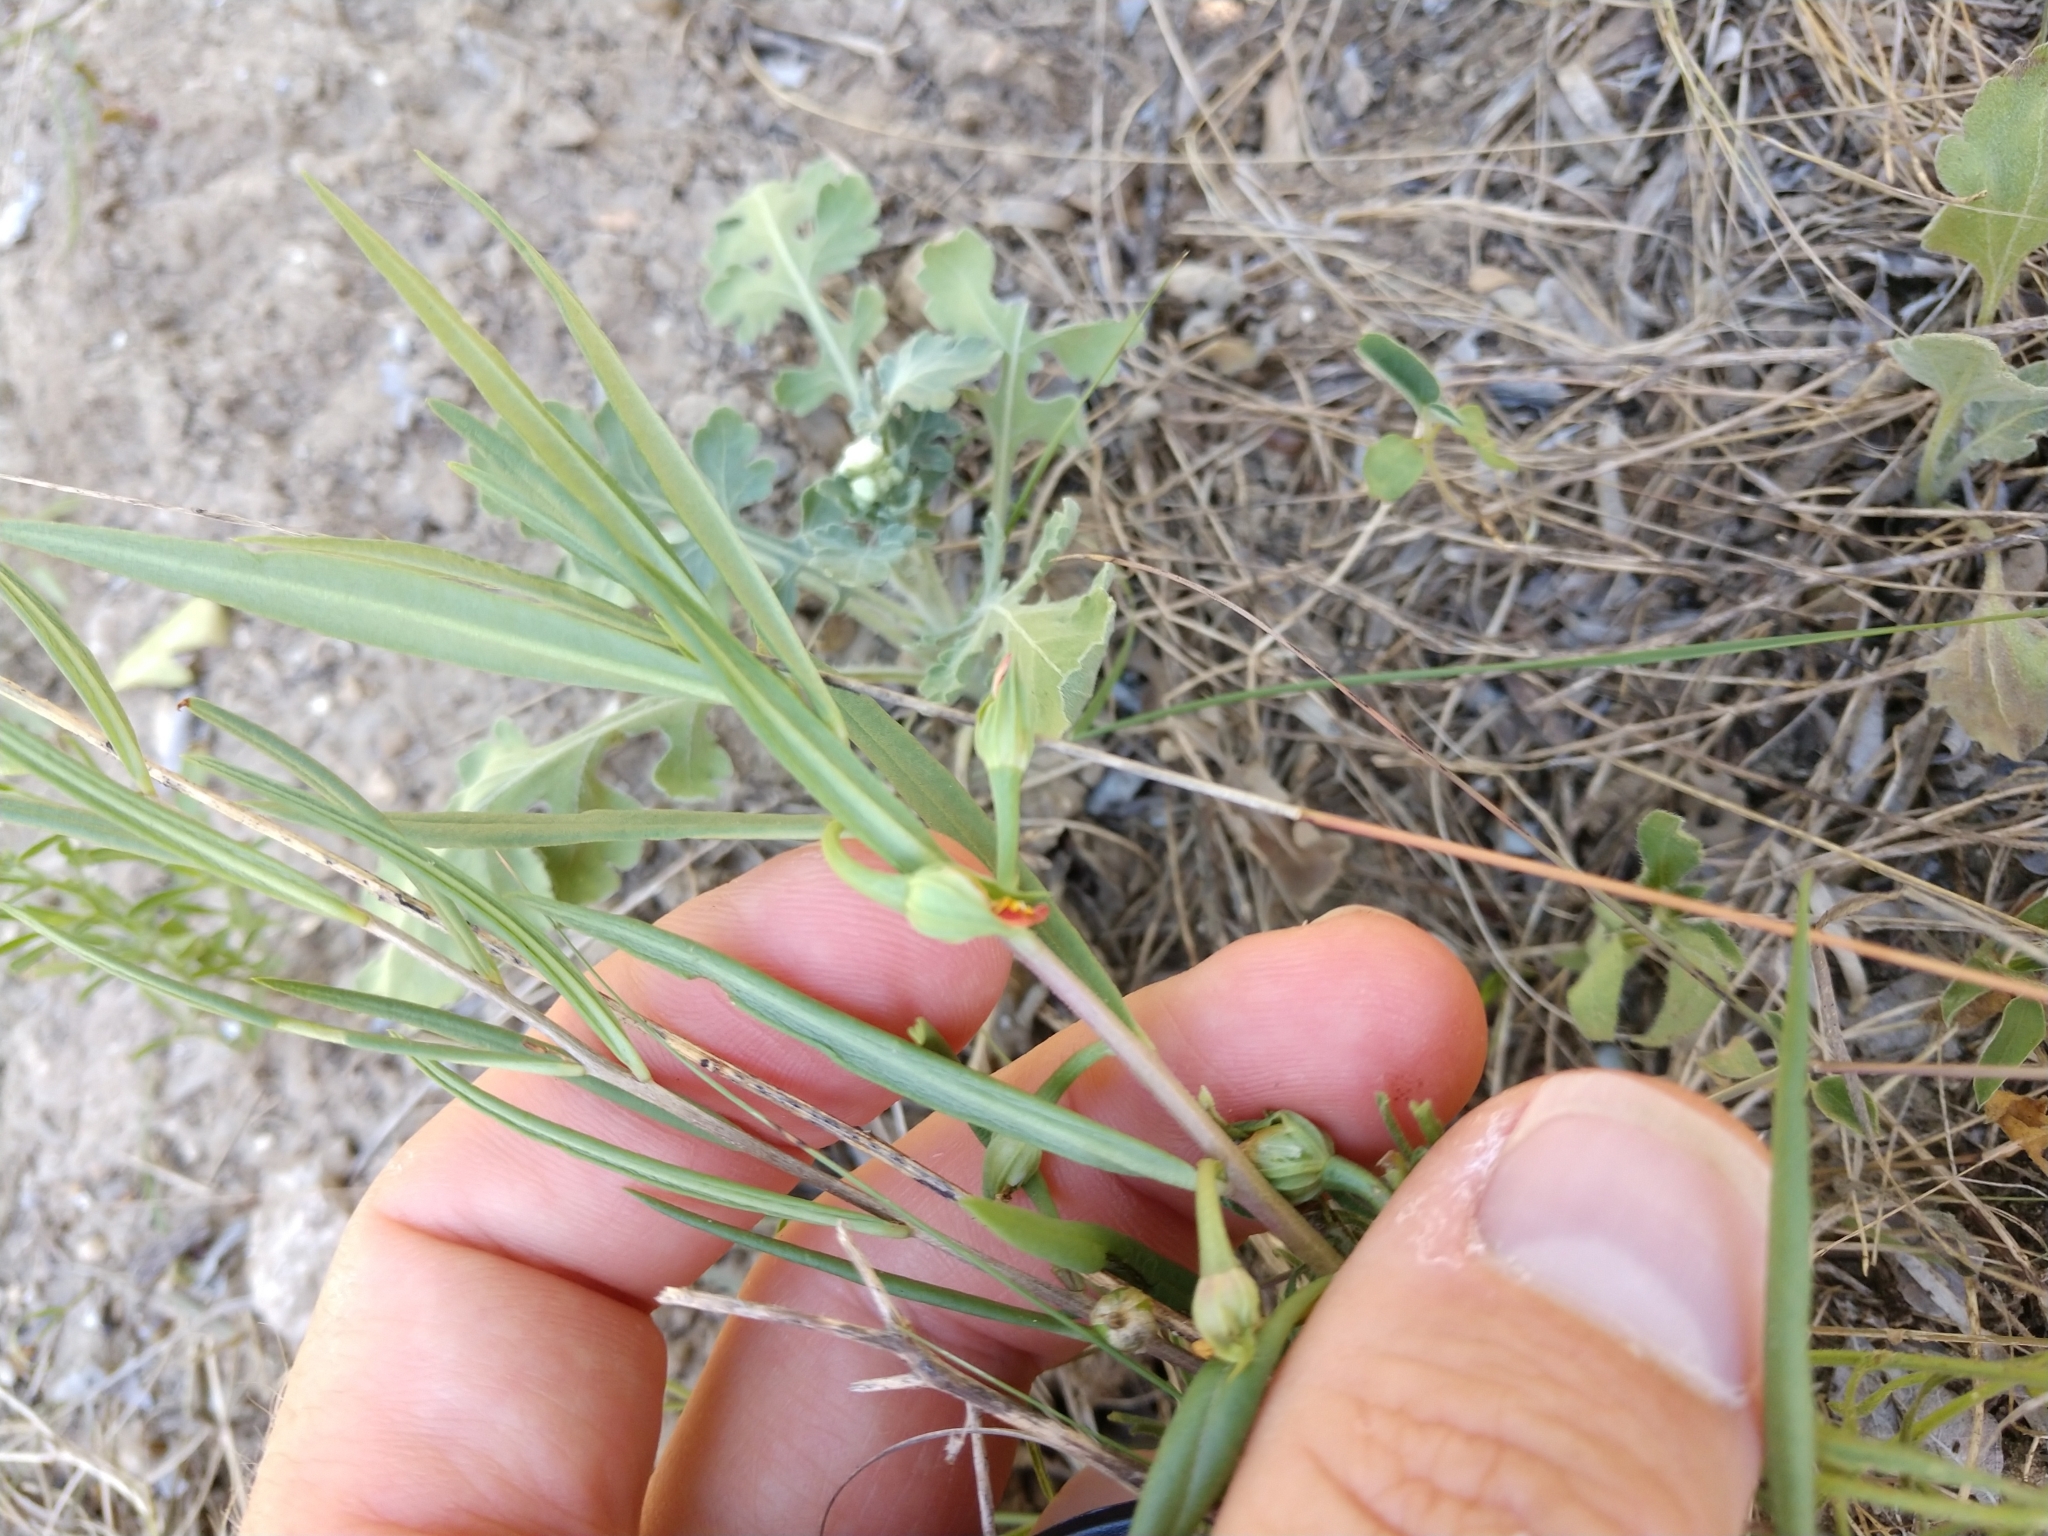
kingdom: Plantae
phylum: Tracheophyta
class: Magnoliopsida
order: Caryophyllales
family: Montiaceae
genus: Phemeranthus
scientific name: Phemeranthus aurantiacus
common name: Orange fameflower
